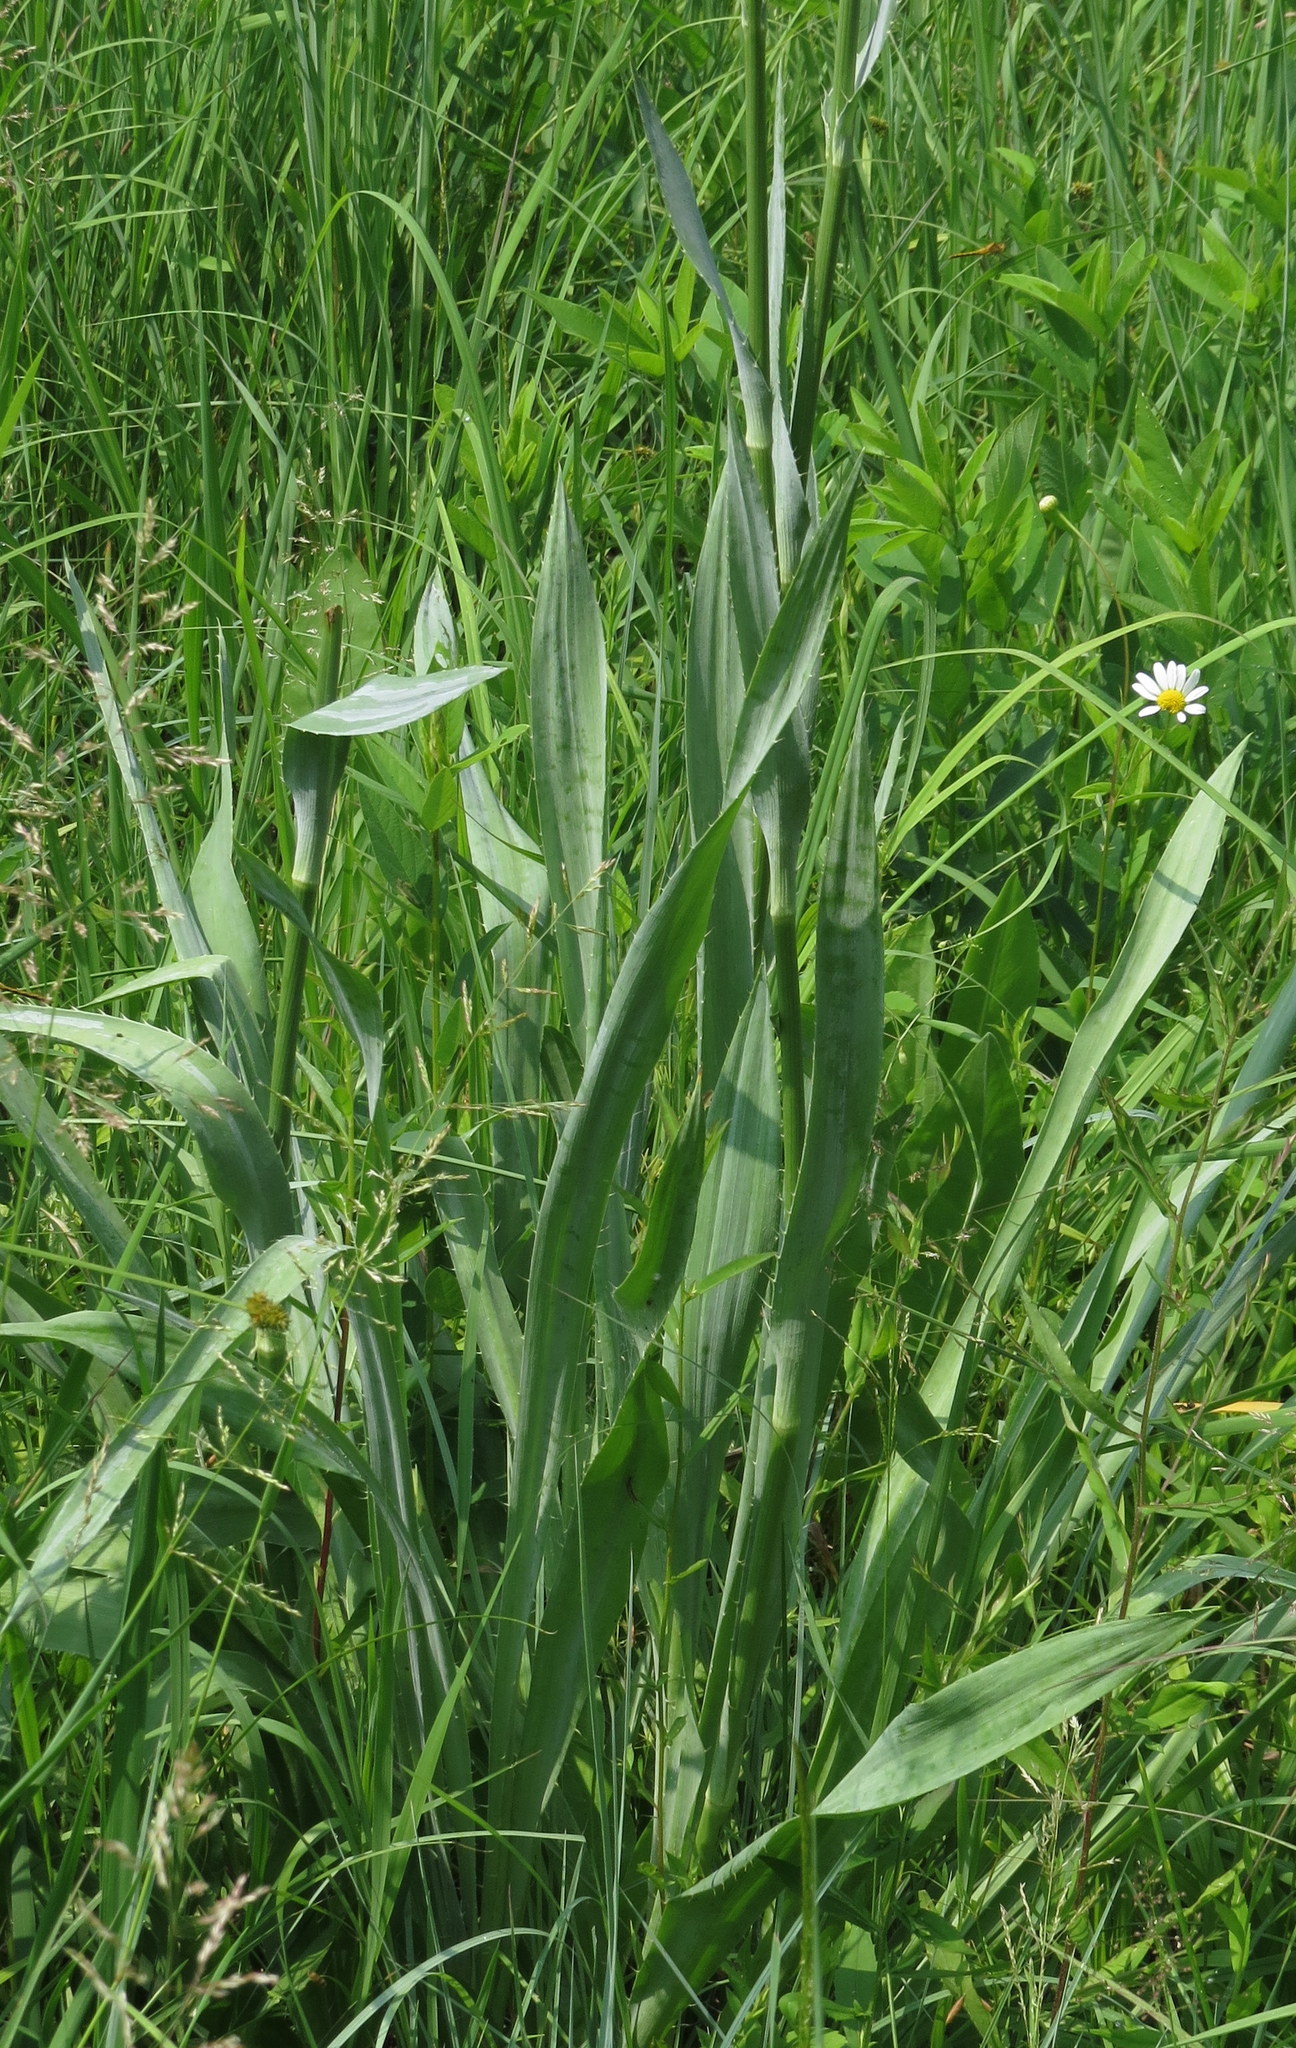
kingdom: Plantae
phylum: Tracheophyta
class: Magnoliopsida
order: Apiales
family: Apiaceae
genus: Eryngium
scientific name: Eryngium yuccifolium
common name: Button eryngo
